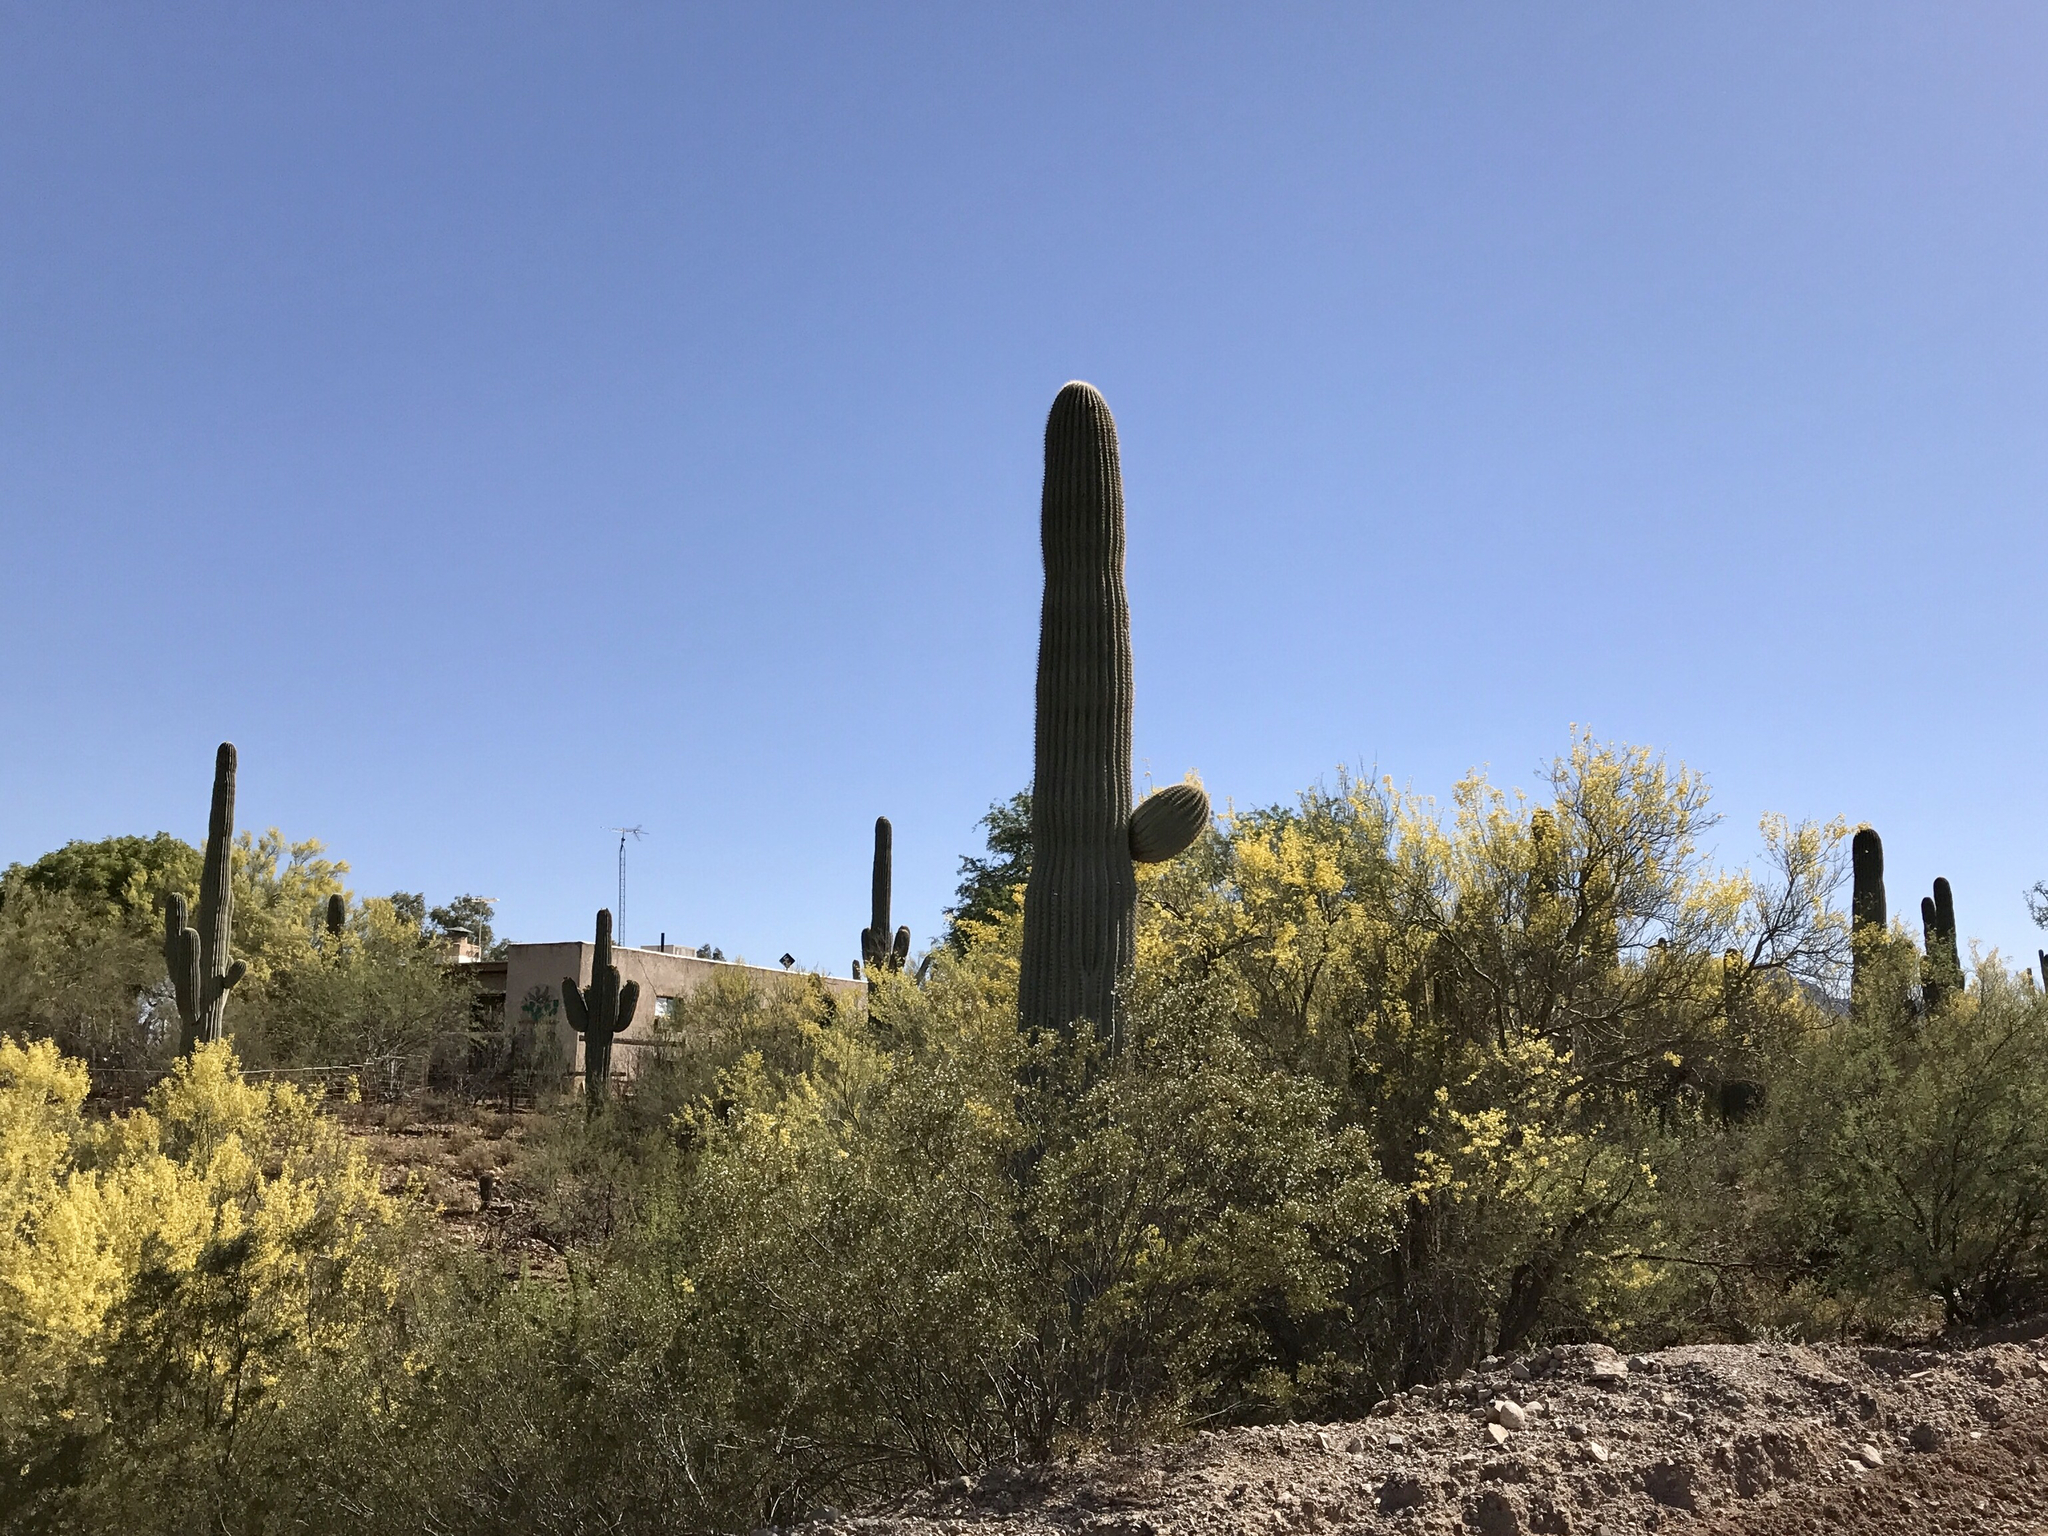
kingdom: Plantae
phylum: Tracheophyta
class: Magnoliopsida
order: Caryophyllales
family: Cactaceae
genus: Carnegiea
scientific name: Carnegiea gigantea
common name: Saguaro
